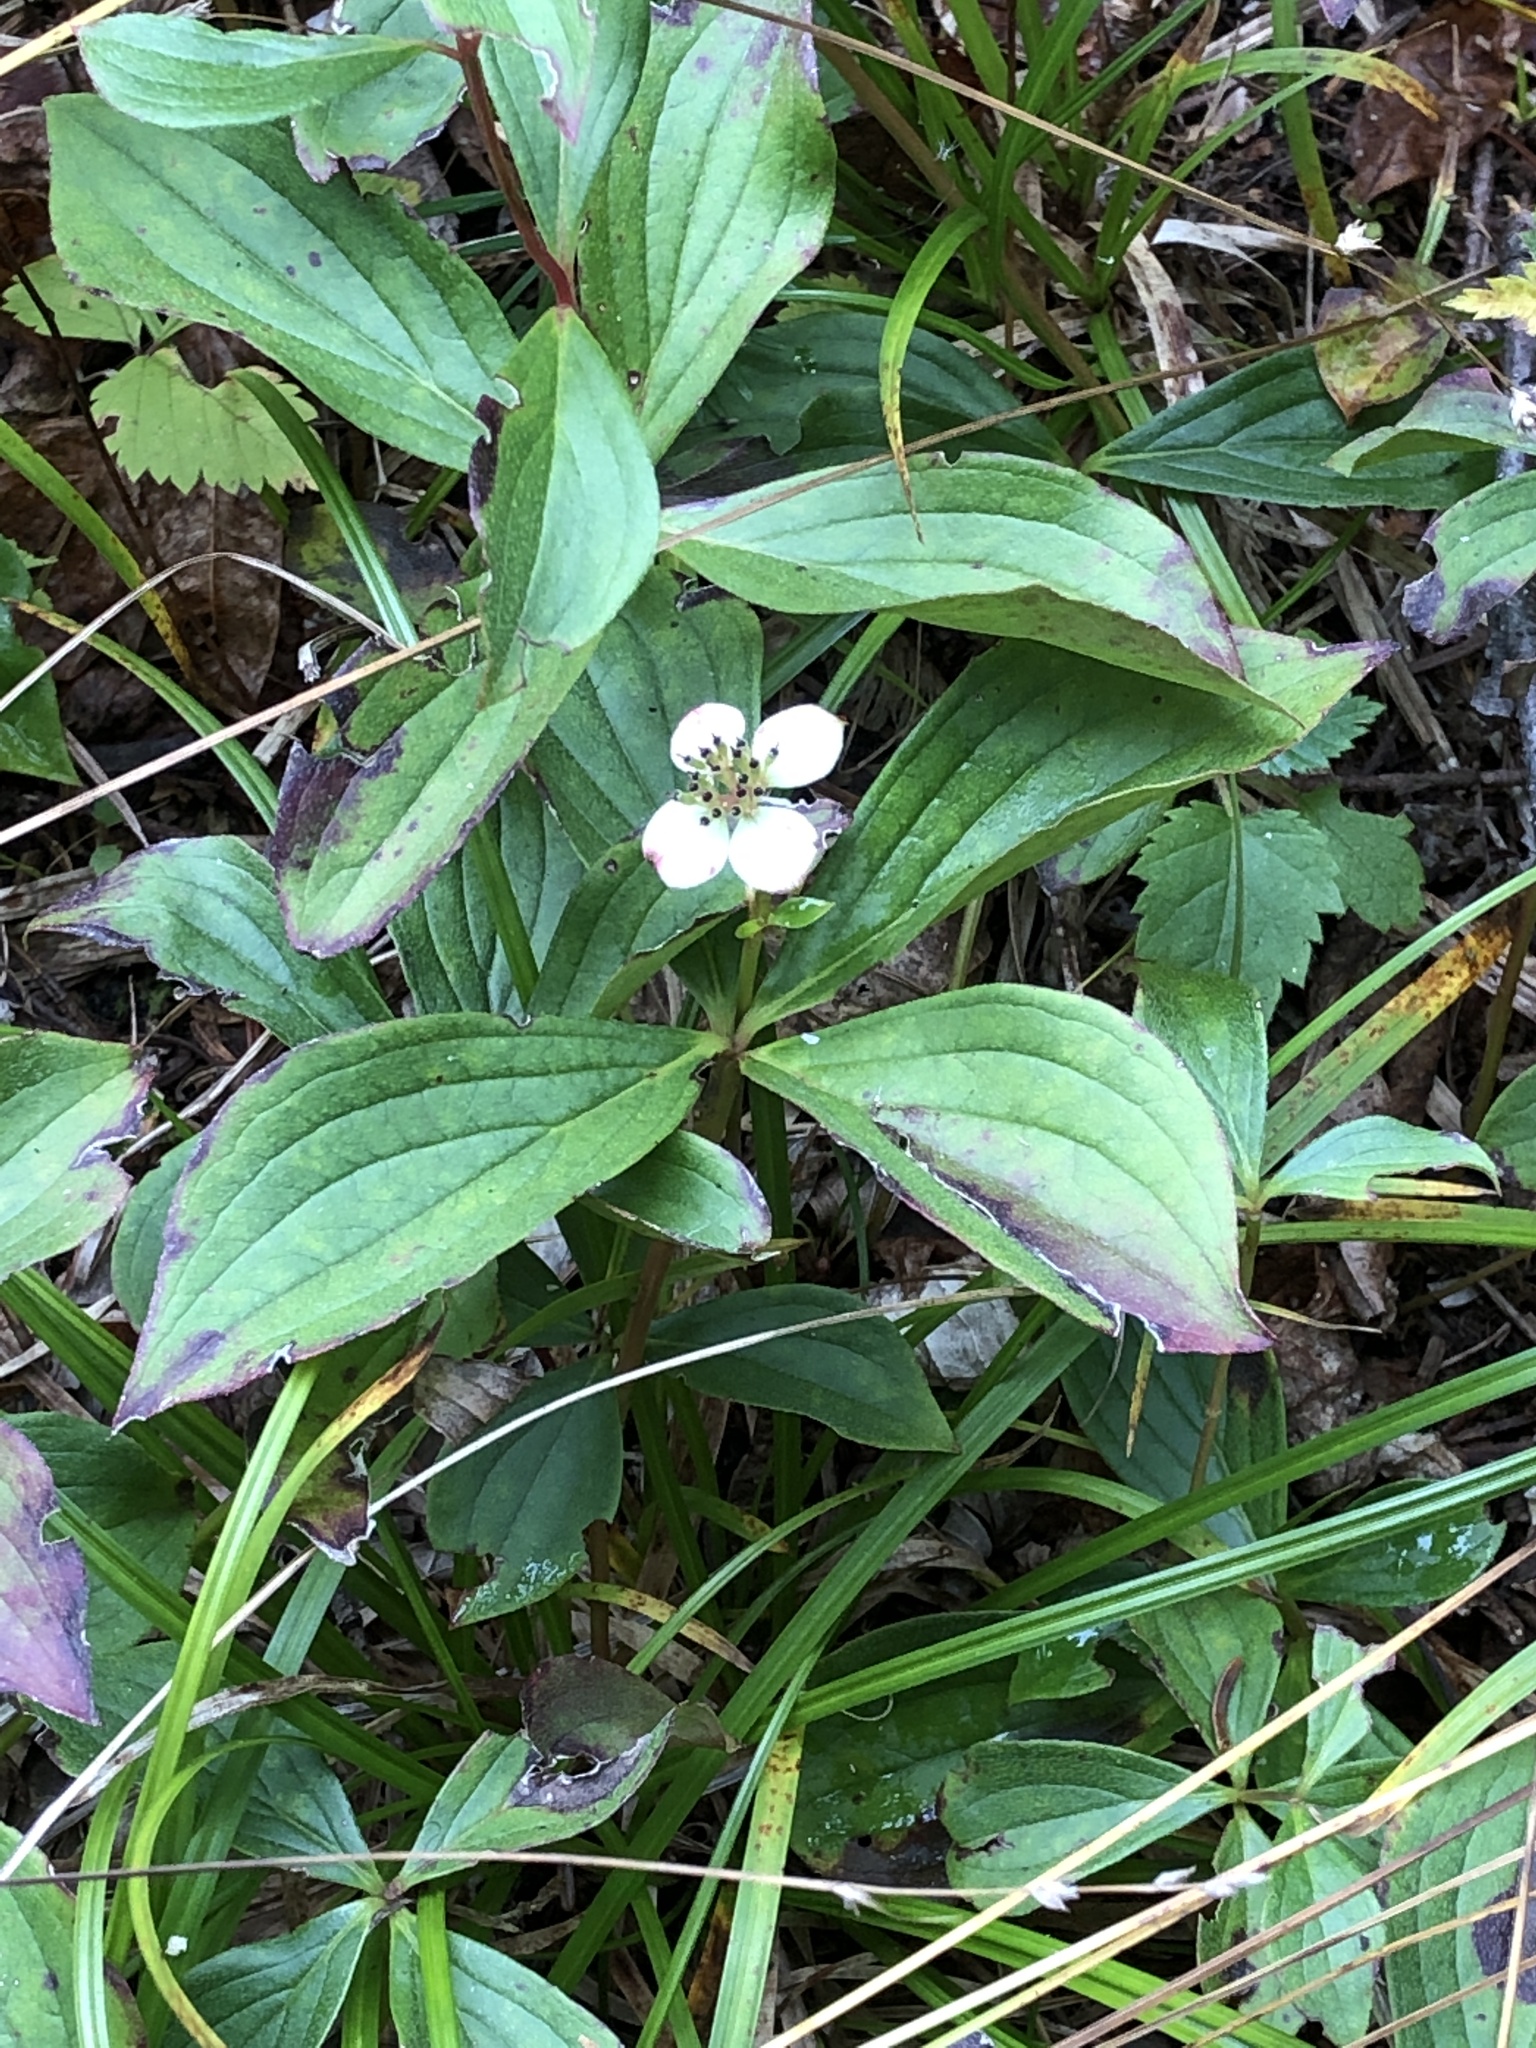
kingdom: Plantae
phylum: Tracheophyta
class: Magnoliopsida
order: Cornales
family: Cornaceae
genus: Cornus
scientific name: Cornus canadensis
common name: Creeping dogwood
